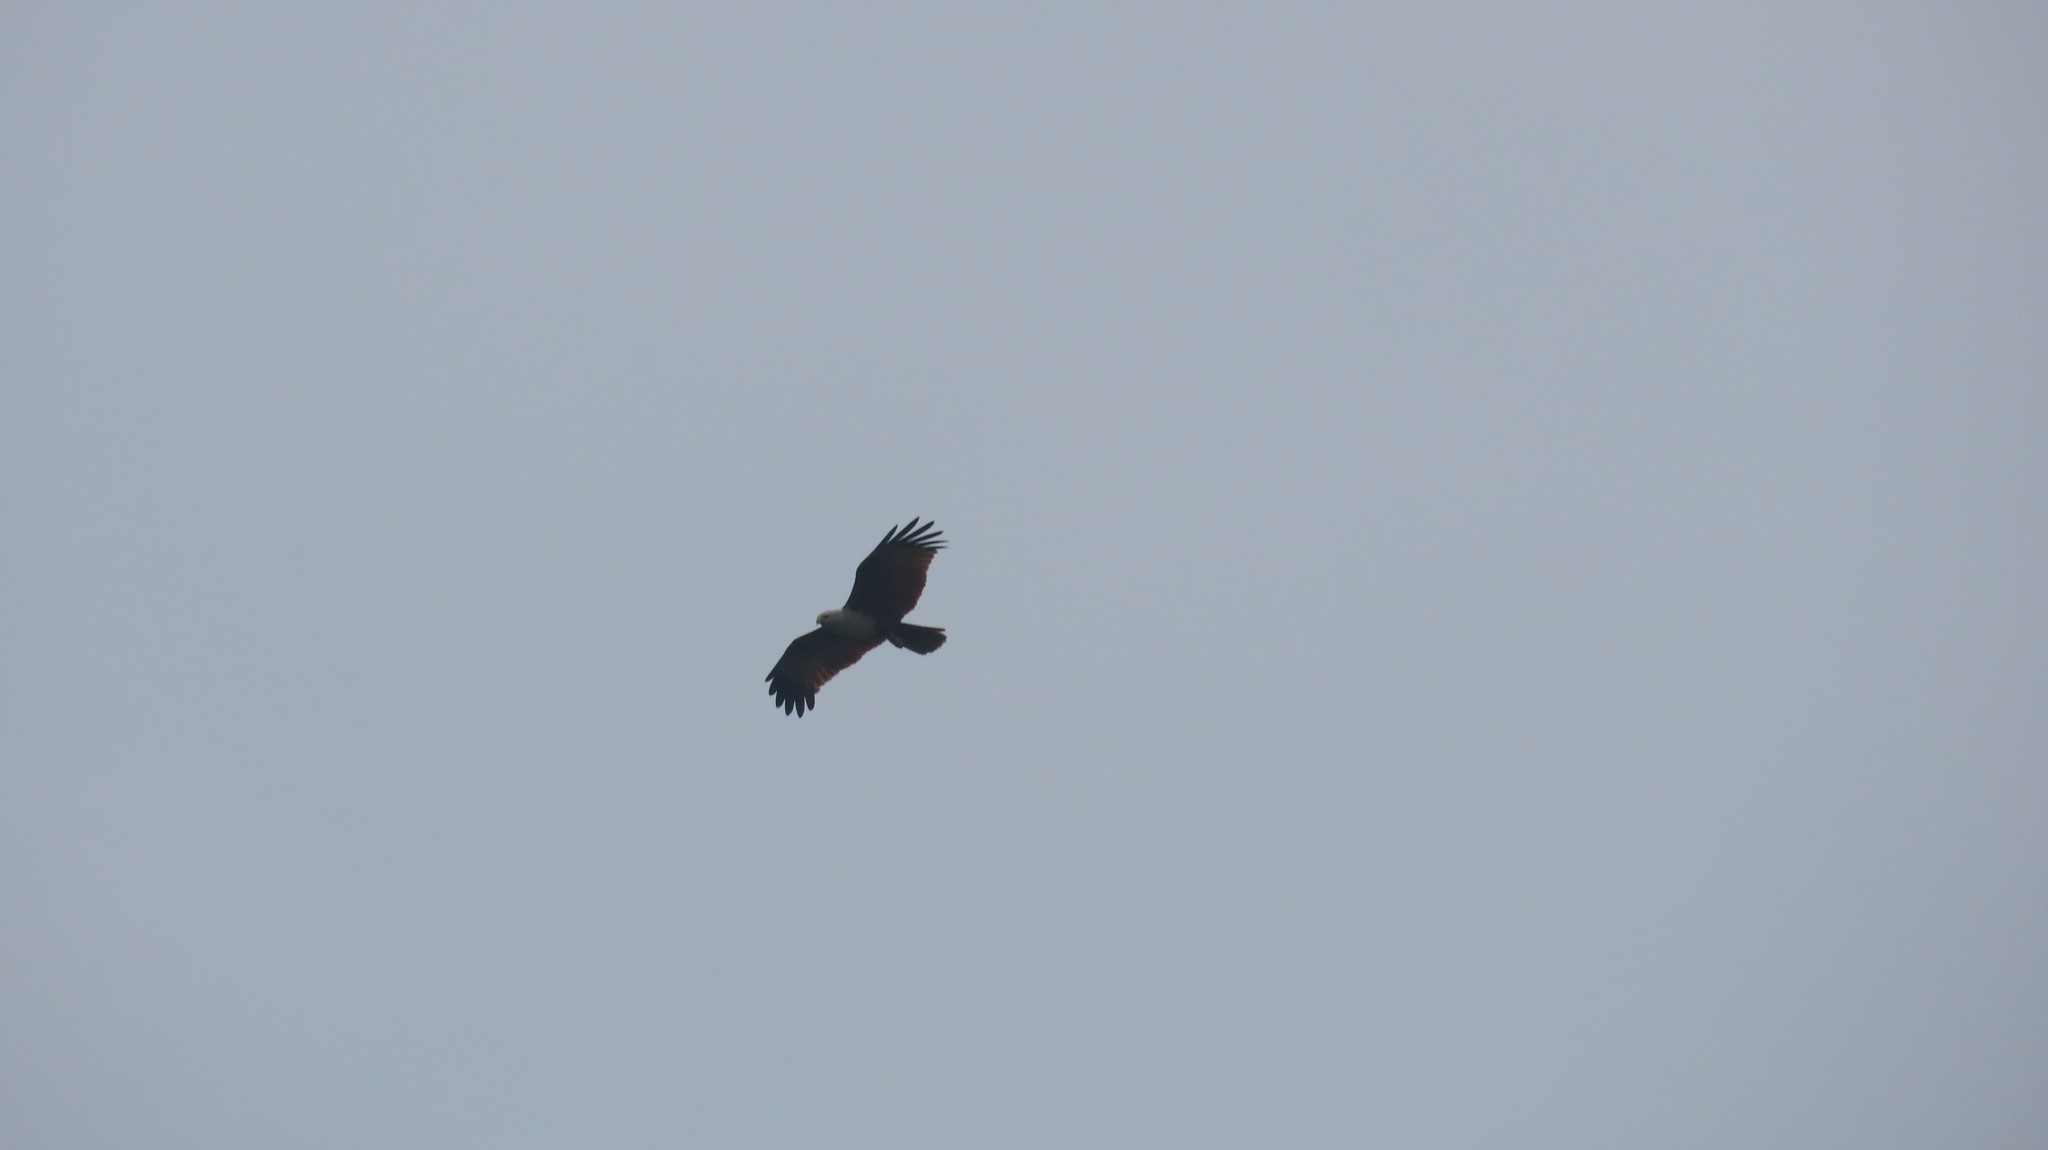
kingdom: Animalia
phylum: Chordata
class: Aves
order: Accipitriformes
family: Accipitridae
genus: Haliastur
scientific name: Haliastur indus
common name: Brahminy kite
